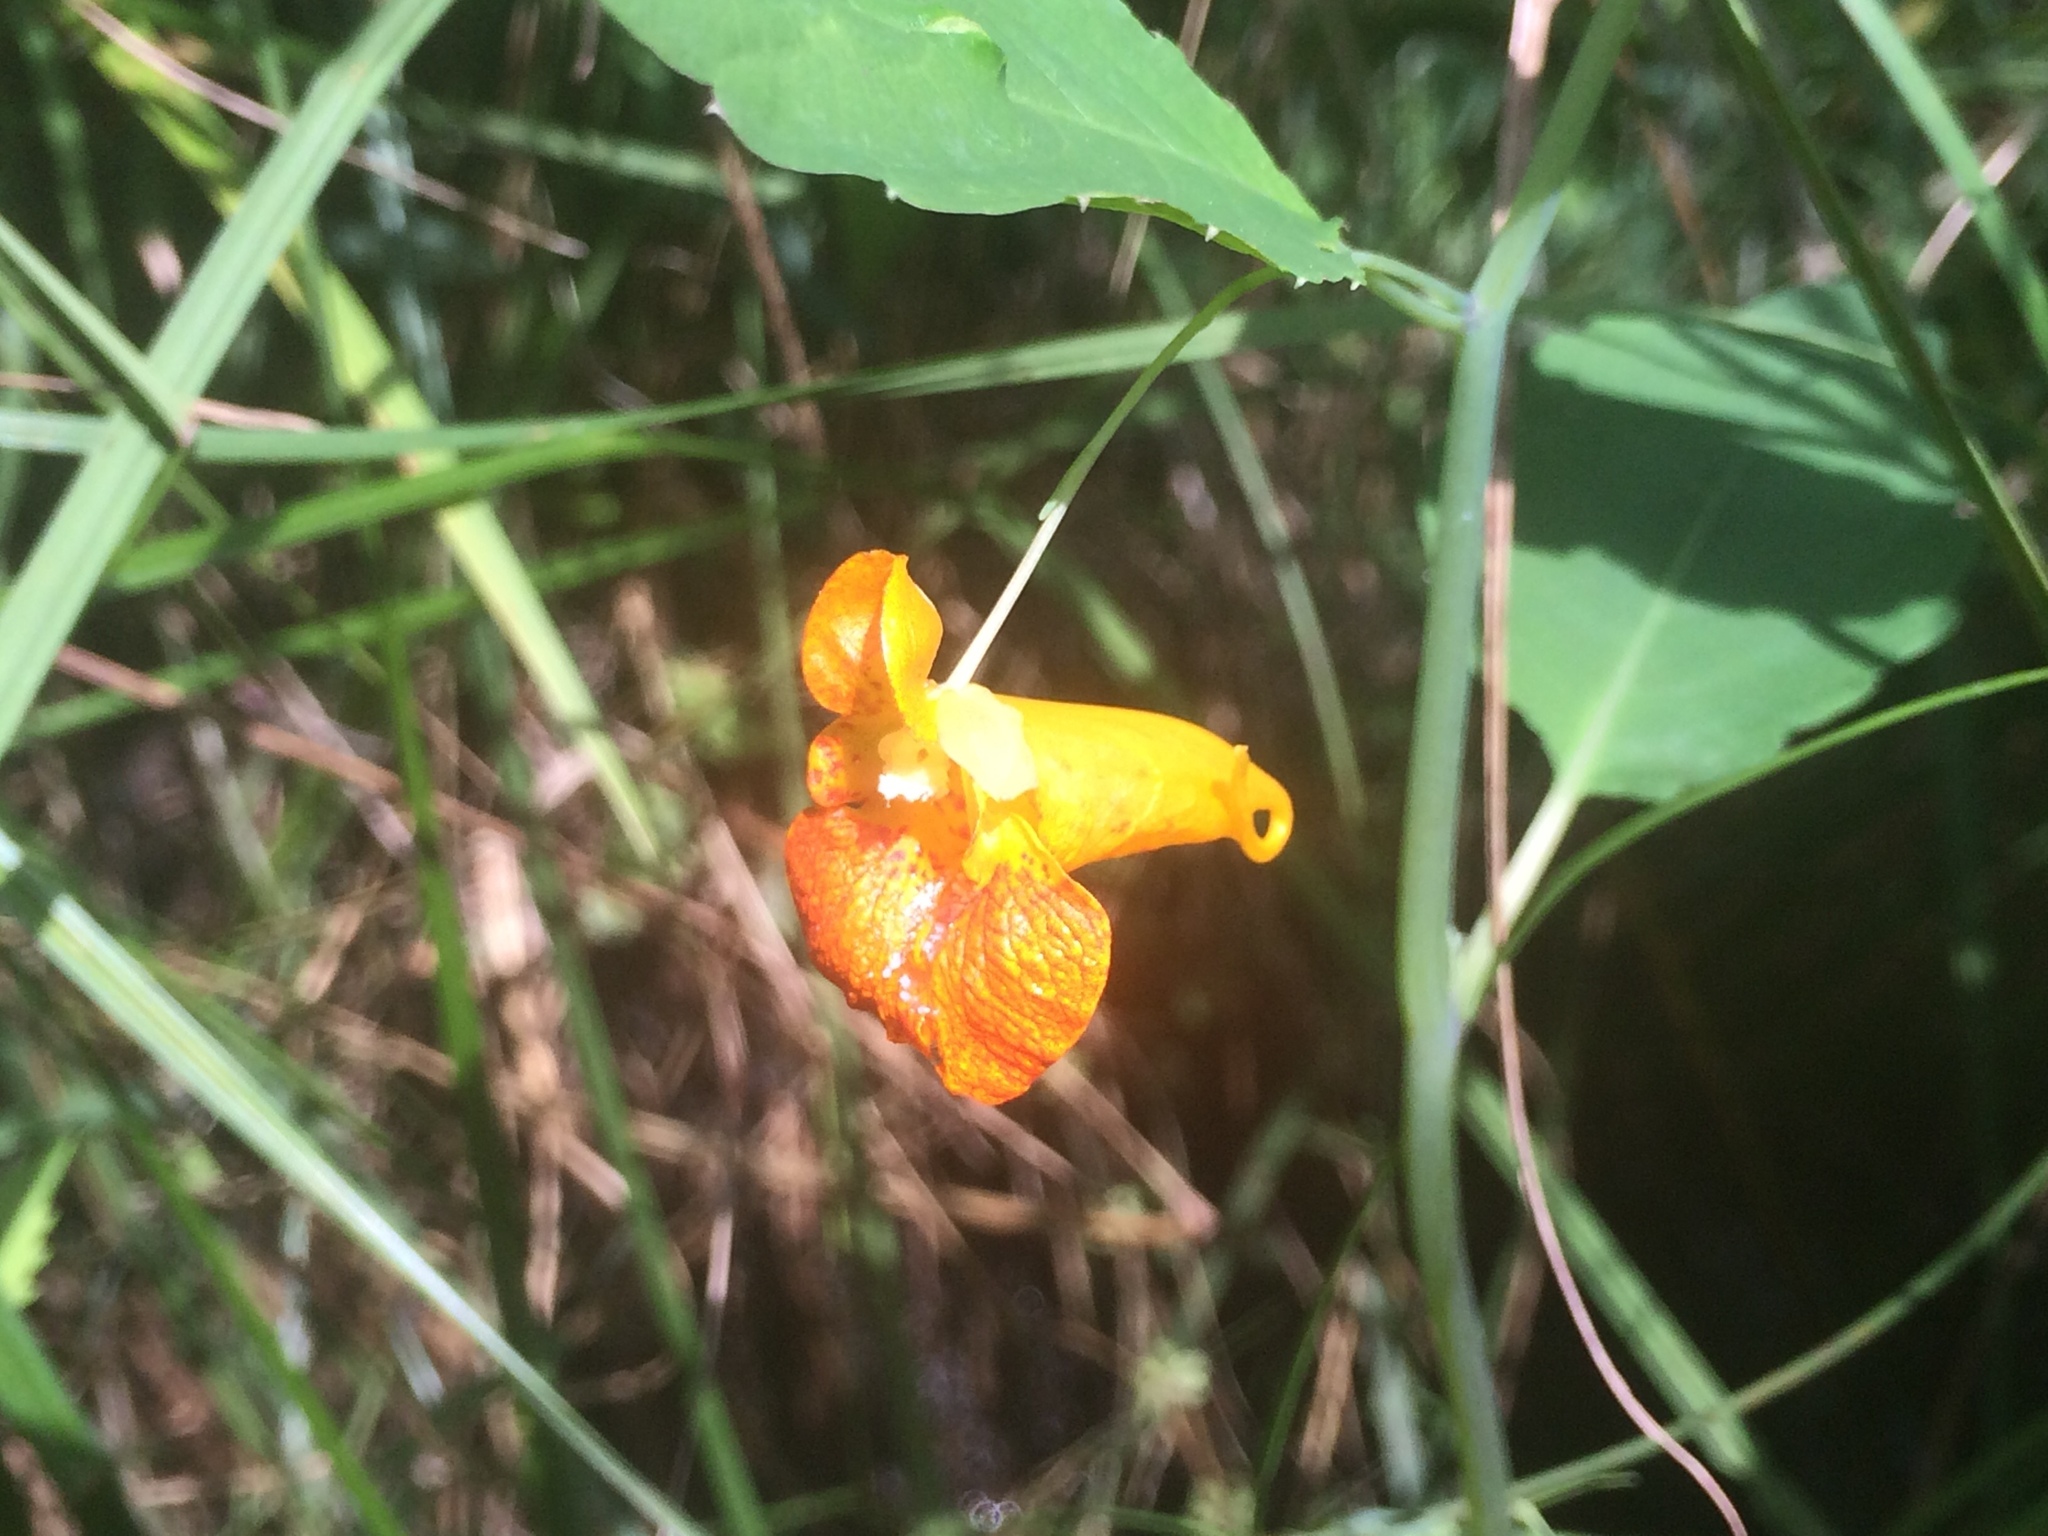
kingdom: Plantae
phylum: Tracheophyta
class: Magnoliopsida
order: Ericales
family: Balsaminaceae
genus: Impatiens
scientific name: Impatiens capensis
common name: Orange balsam
